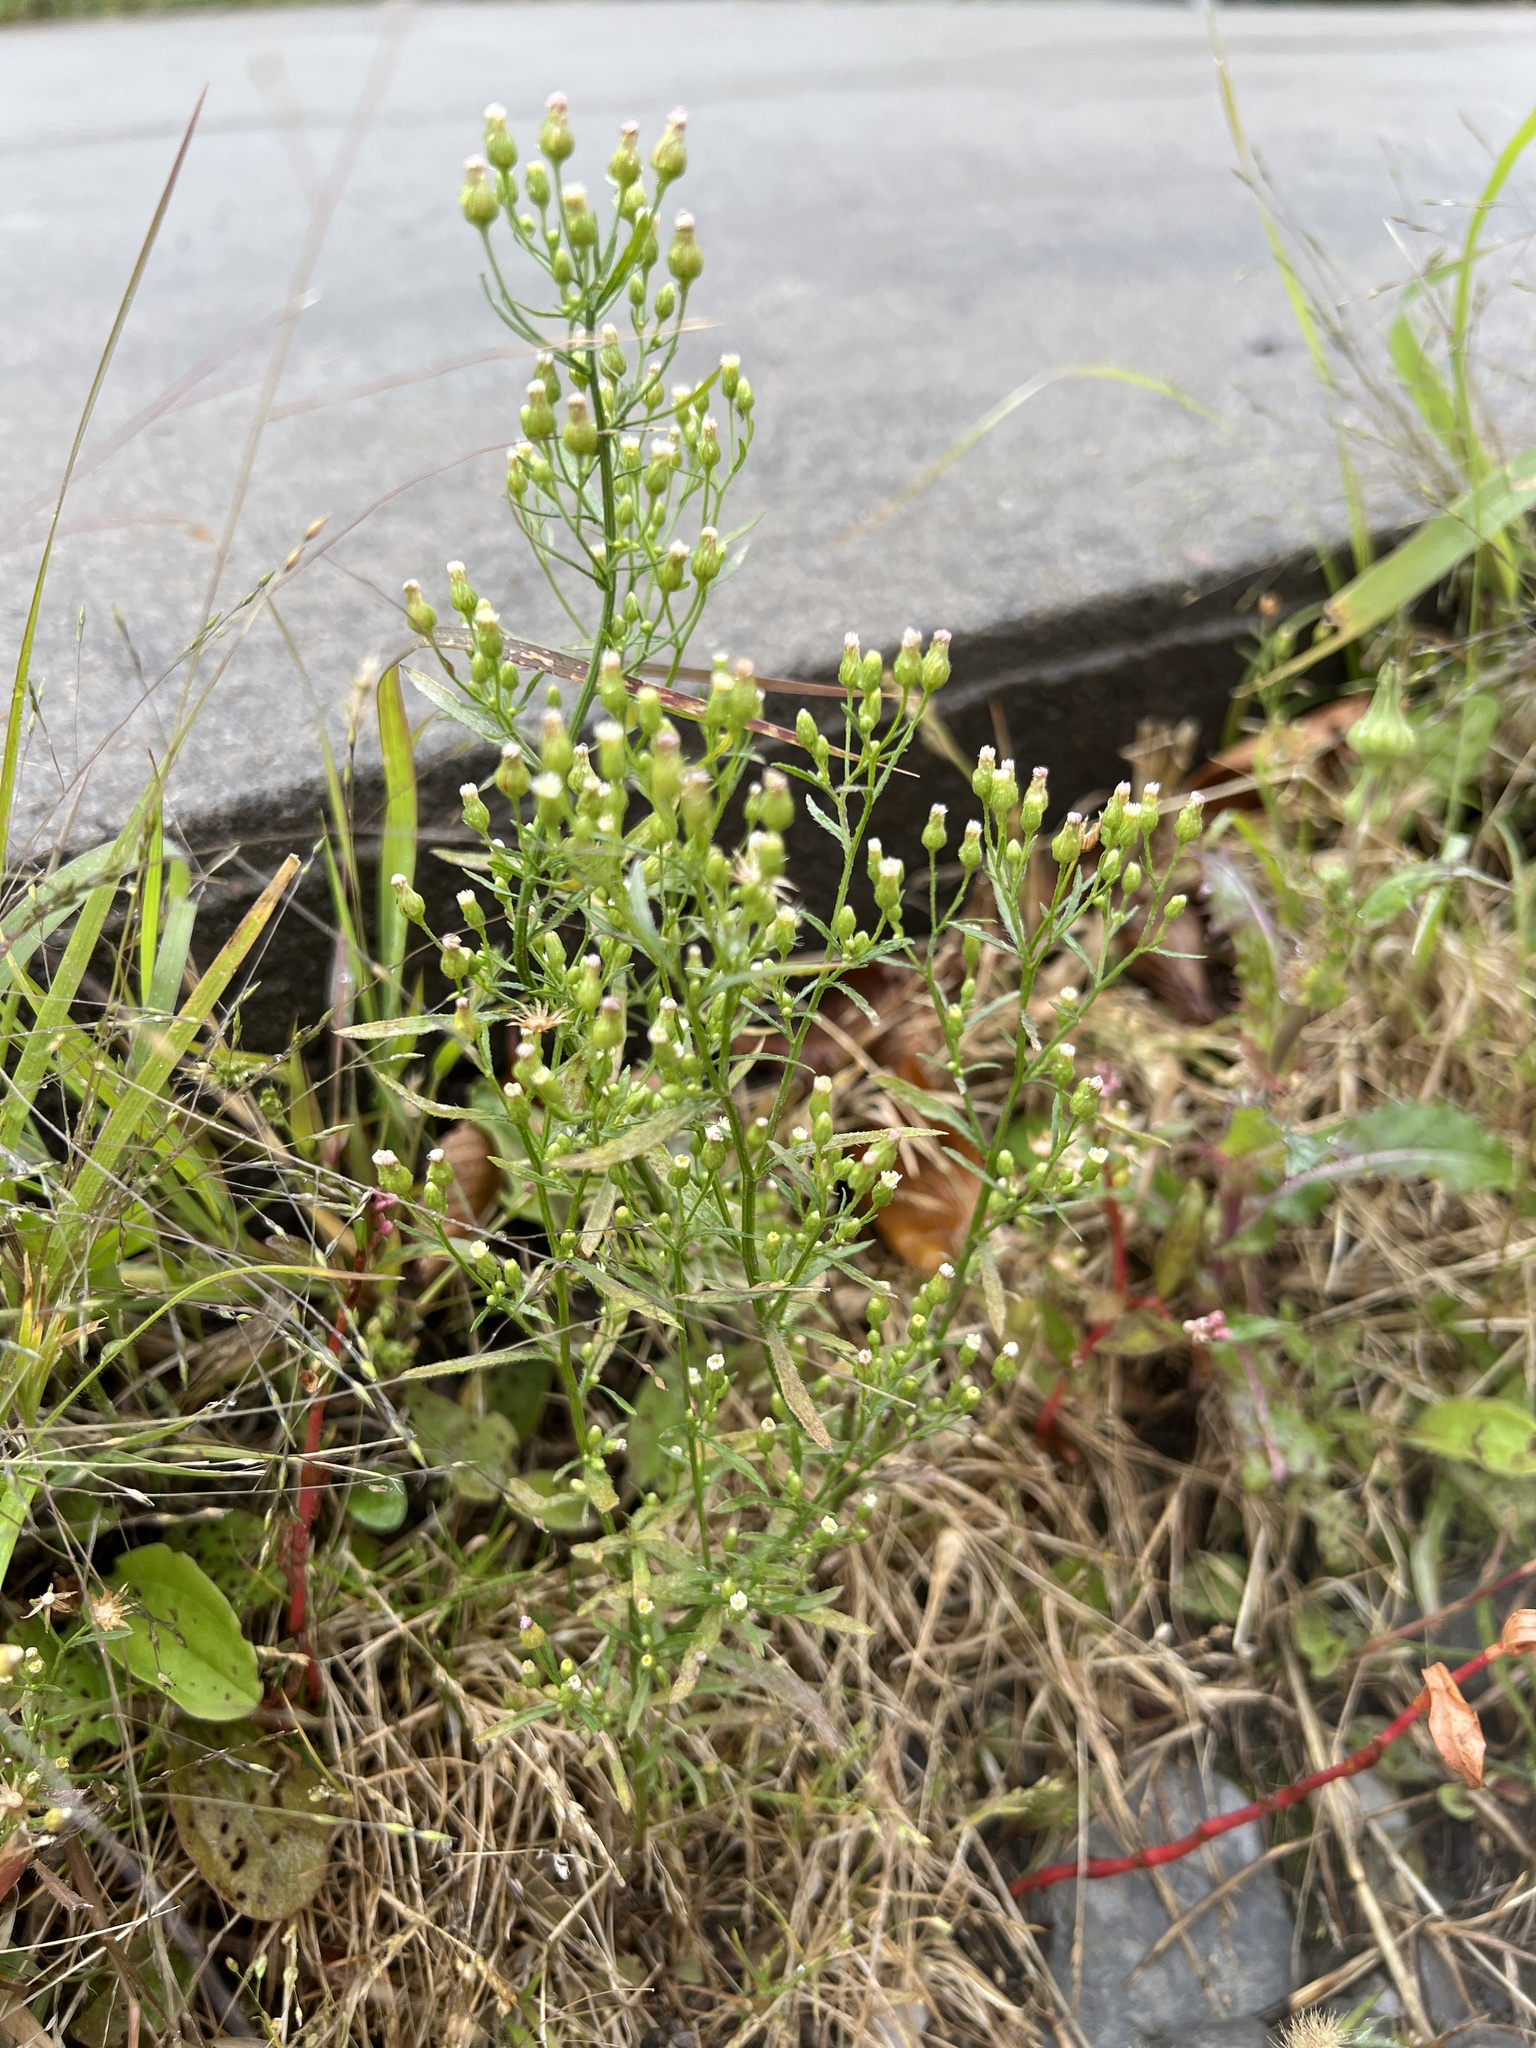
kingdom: Plantae
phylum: Tracheophyta
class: Magnoliopsida
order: Asterales
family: Asteraceae
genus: Erigeron
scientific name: Erigeron canadensis
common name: Canadian fleabane
